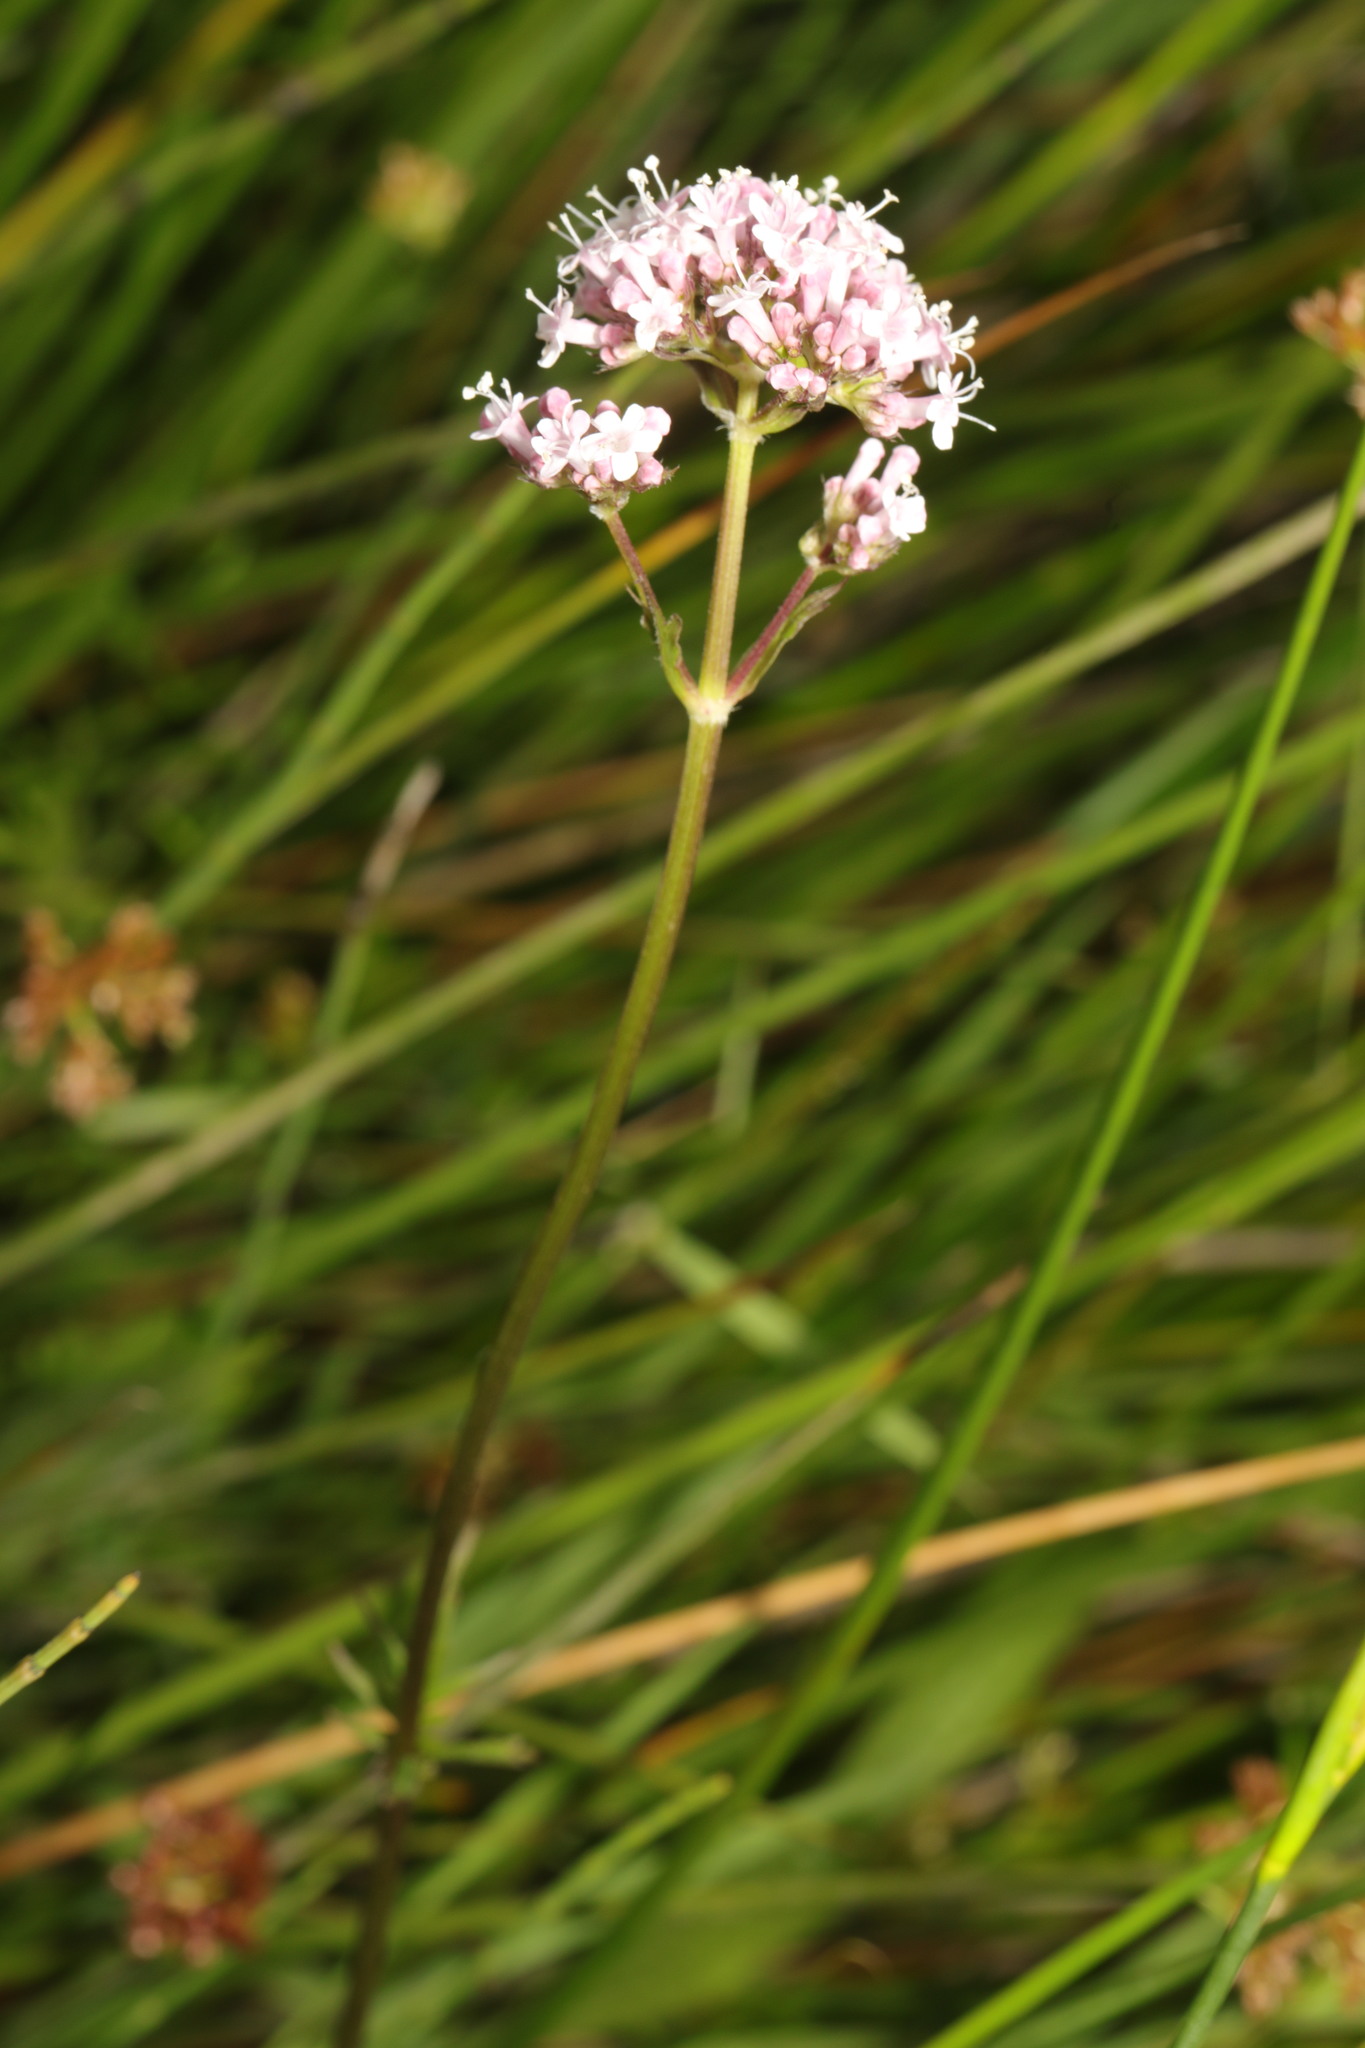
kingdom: Plantae
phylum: Tracheophyta
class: Magnoliopsida
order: Dipsacales
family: Caprifoliaceae
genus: Valeriana
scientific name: Valeriana officinalis
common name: Common valerian
